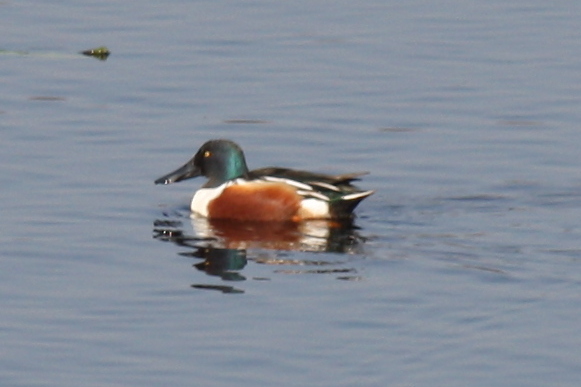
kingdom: Animalia
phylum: Chordata
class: Aves
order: Anseriformes
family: Anatidae
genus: Spatula
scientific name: Spatula clypeata
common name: Northern shoveler
